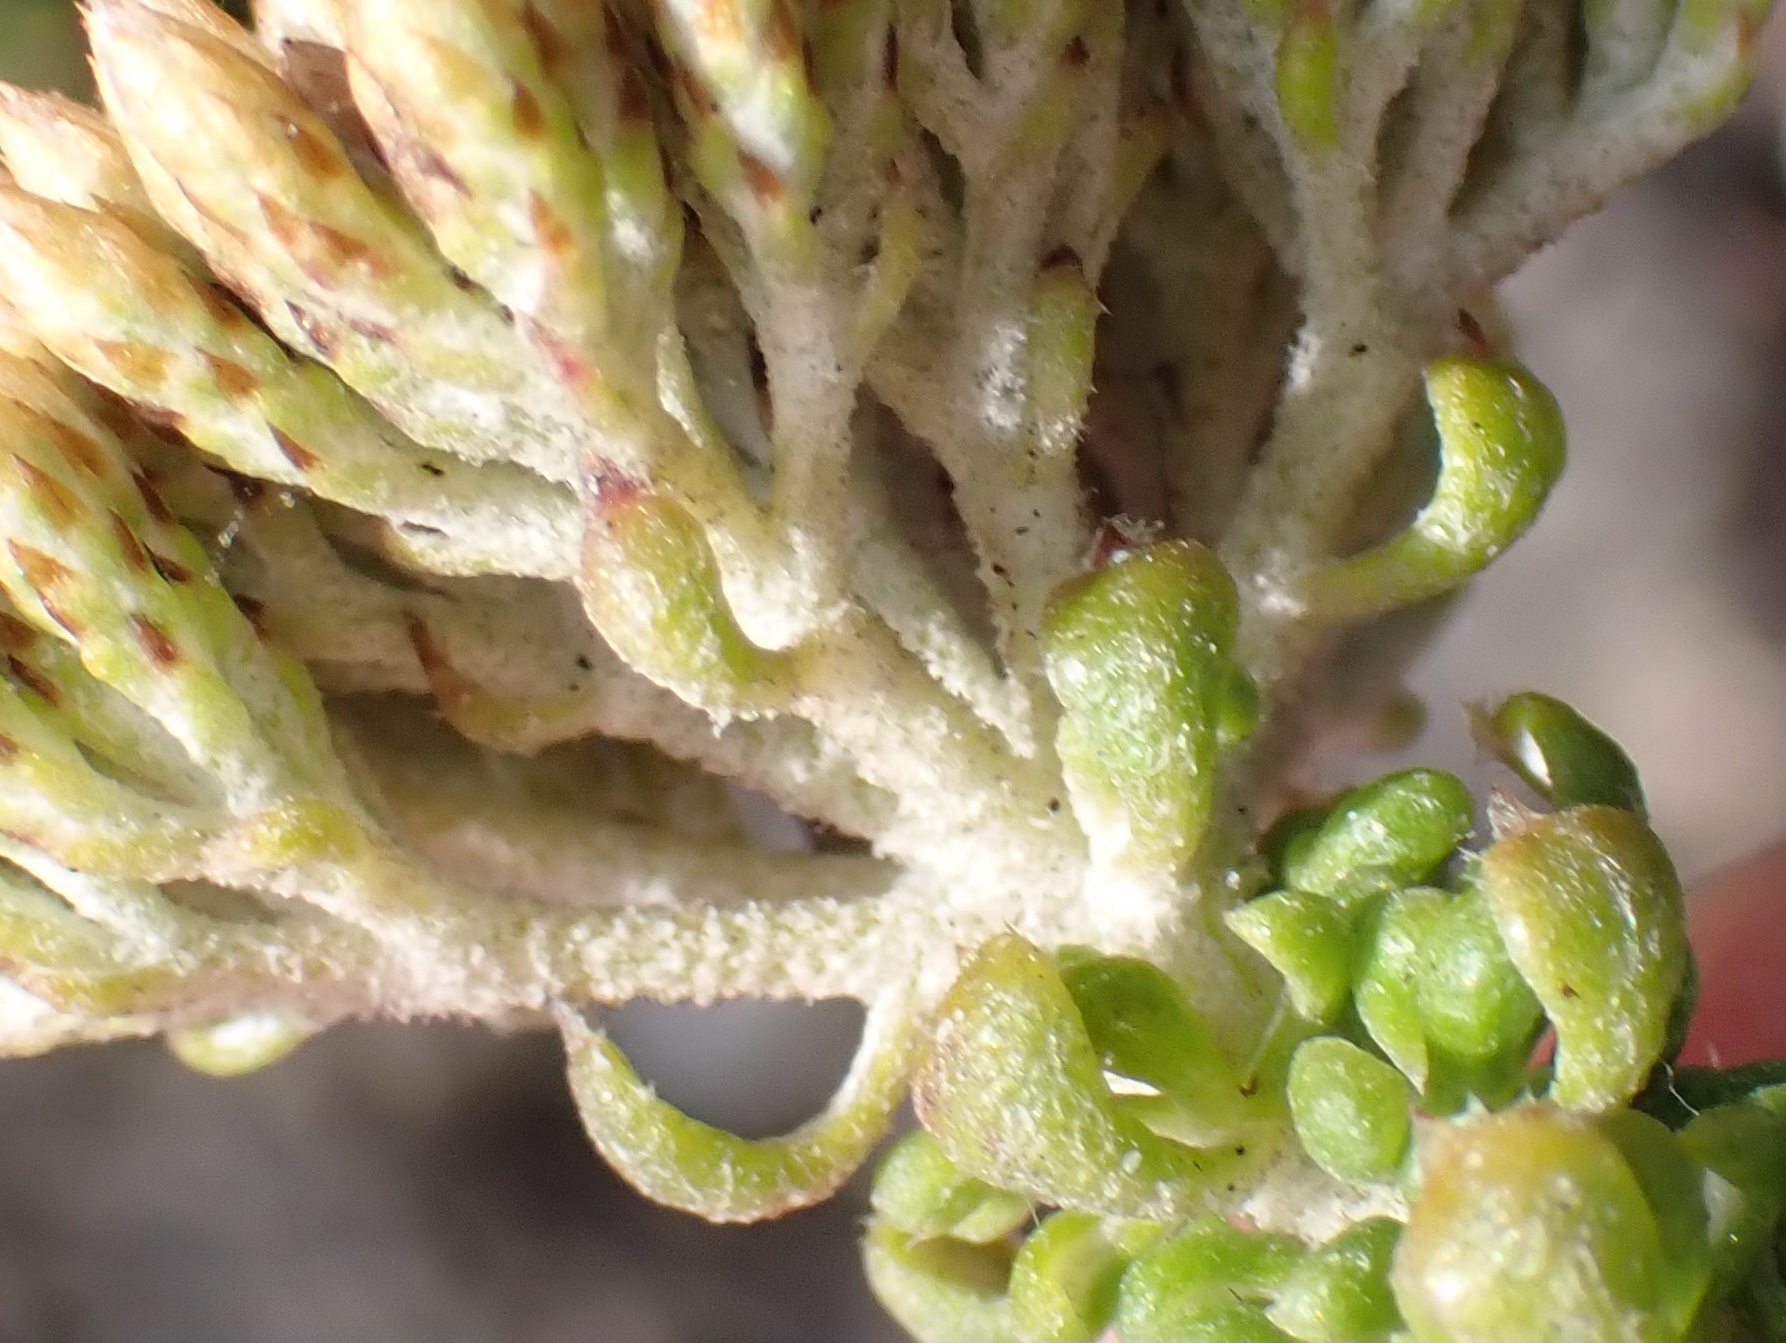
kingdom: Plantae
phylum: Tracheophyta
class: Magnoliopsida
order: Asterales
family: Asteraceae
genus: Metalasia
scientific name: Metalasia calcicola
